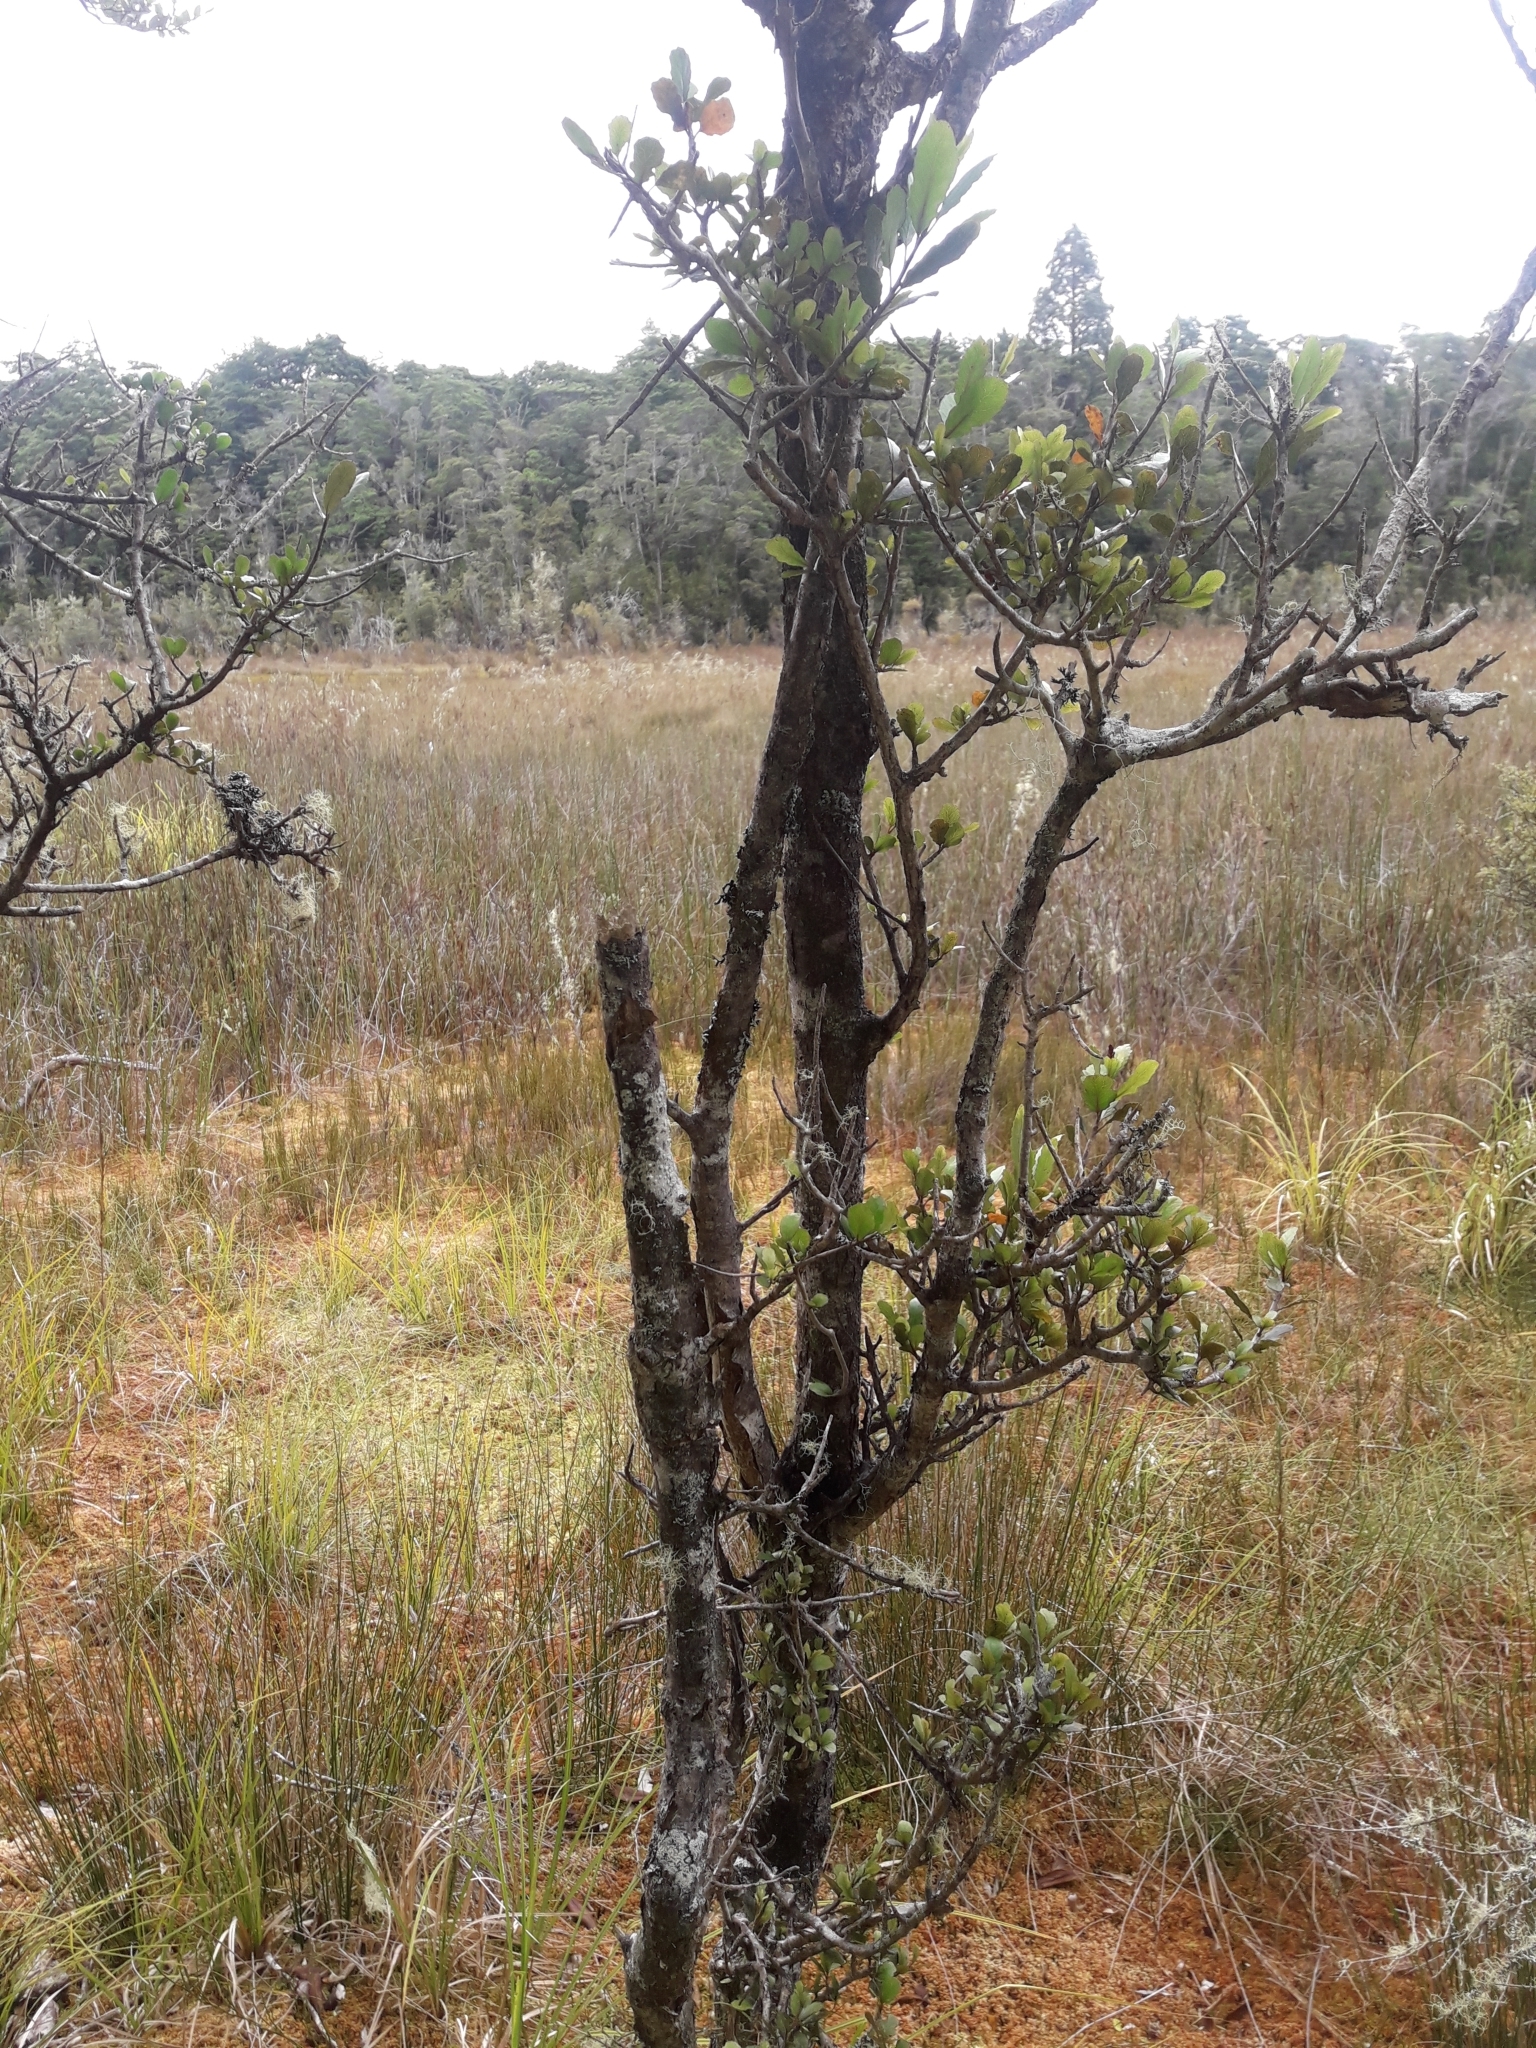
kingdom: Plantae
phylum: Tracheophyta
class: Magnoliopsida
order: Oxalidales
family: Elaeocarpaceae
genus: Elaeocarpus
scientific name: Elaeocarpus hookerianus
